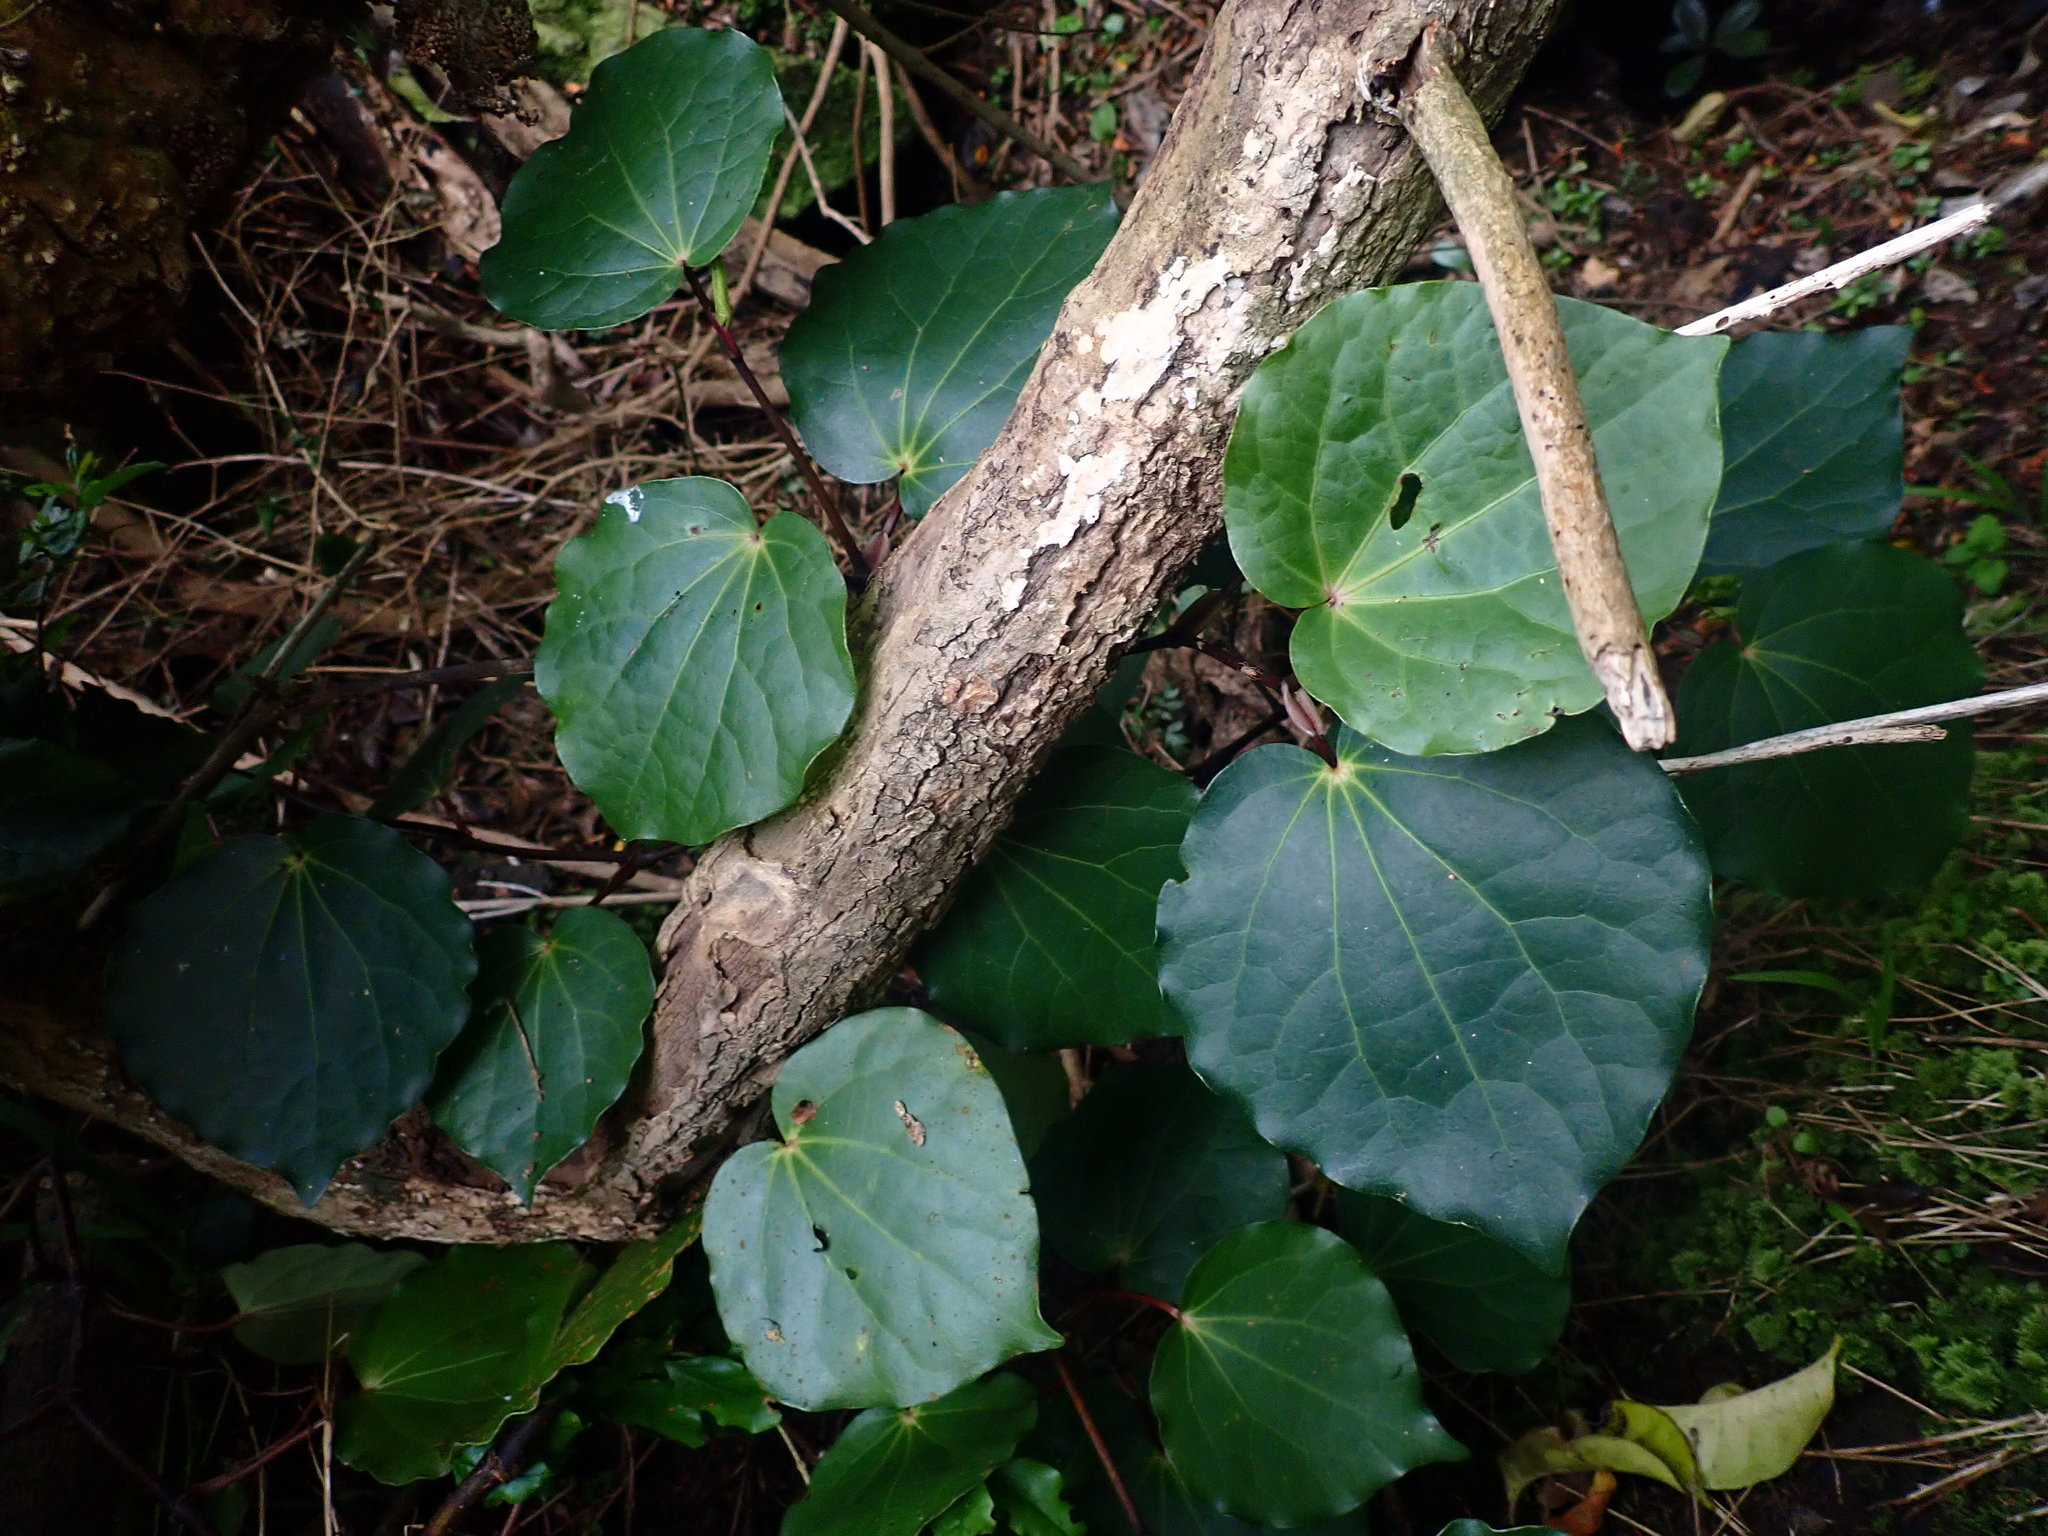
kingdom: Plantae
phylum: Tracheophyta
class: Magnoliopsida
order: Piperales
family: Piperaceae
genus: Macropiper
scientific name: Macropiper excelsum
